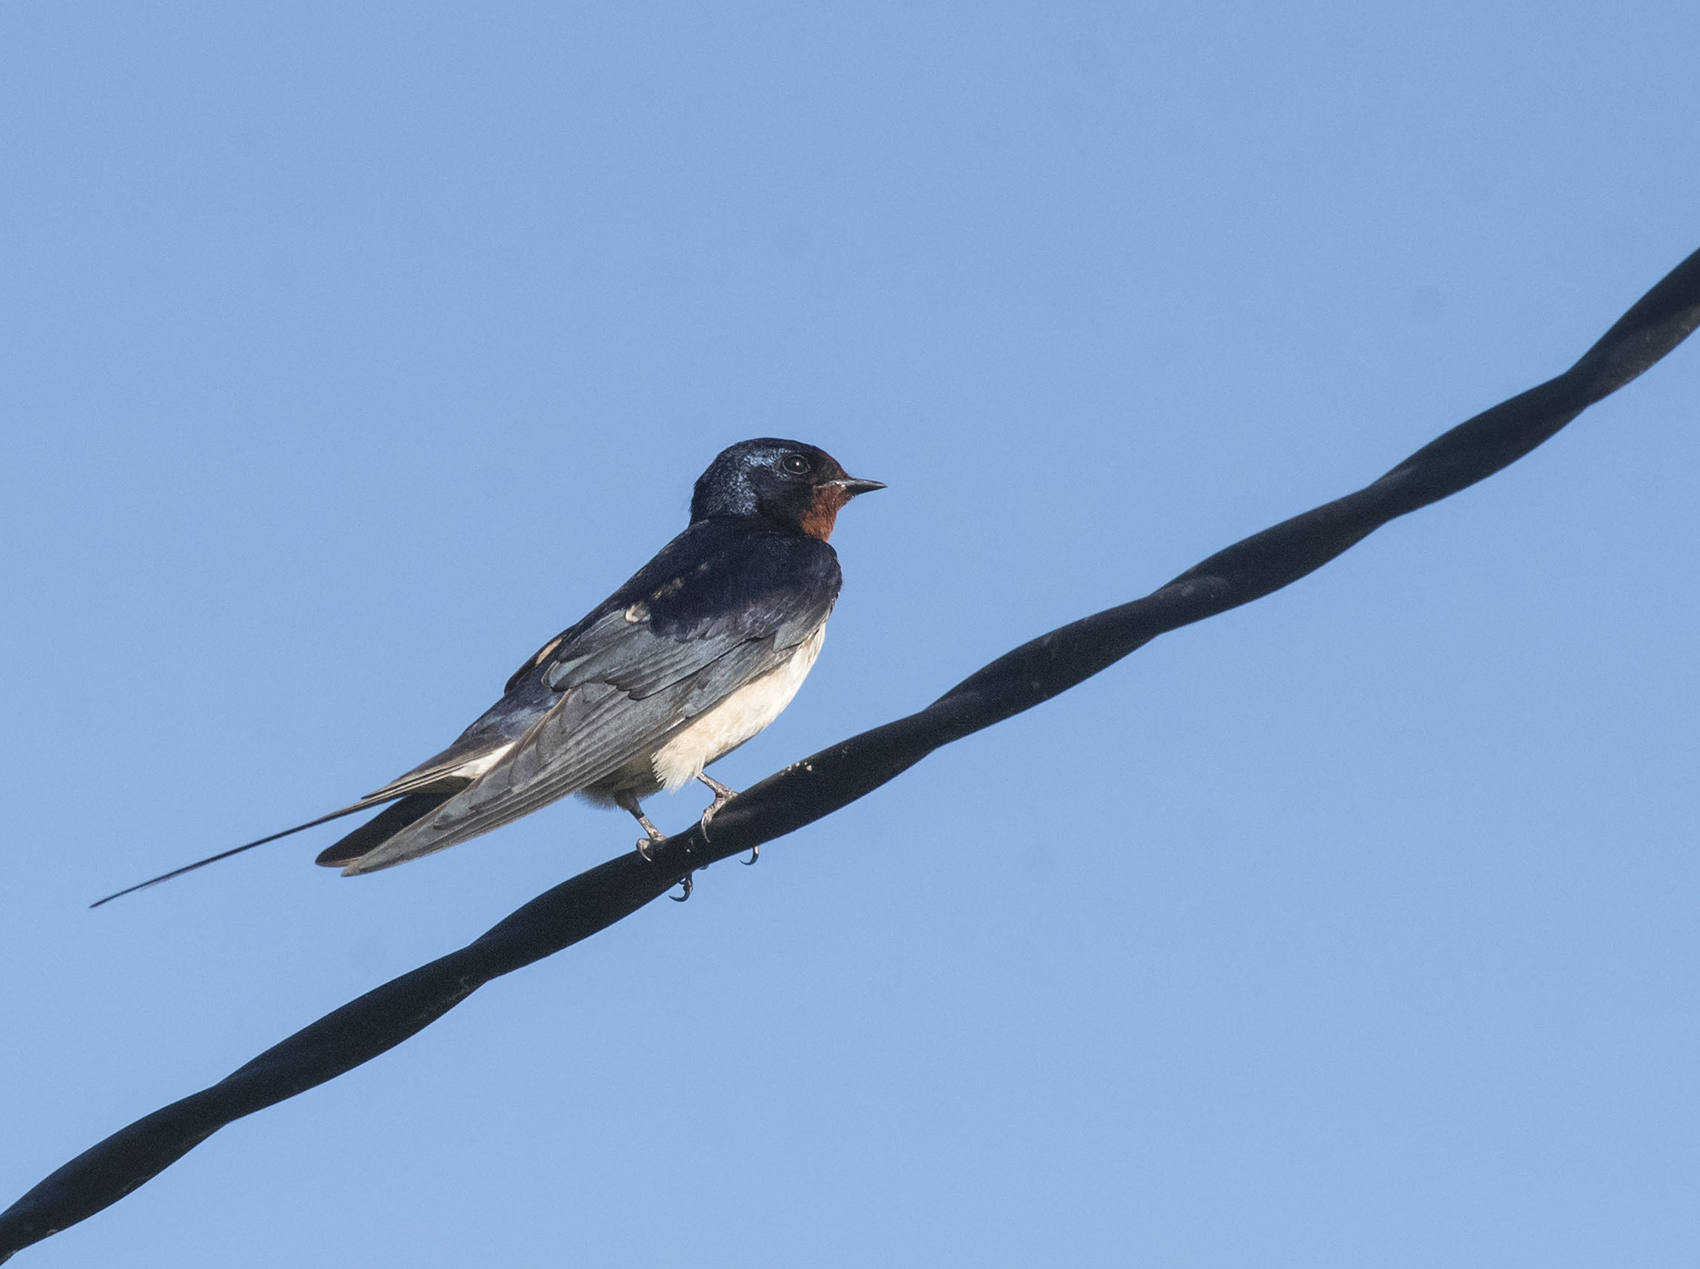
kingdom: Animalia
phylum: Chordata
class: Aves
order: Passeriformes
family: Hirundinidae
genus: Hirundo
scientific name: Hirundo rustica
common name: Barn swallow
